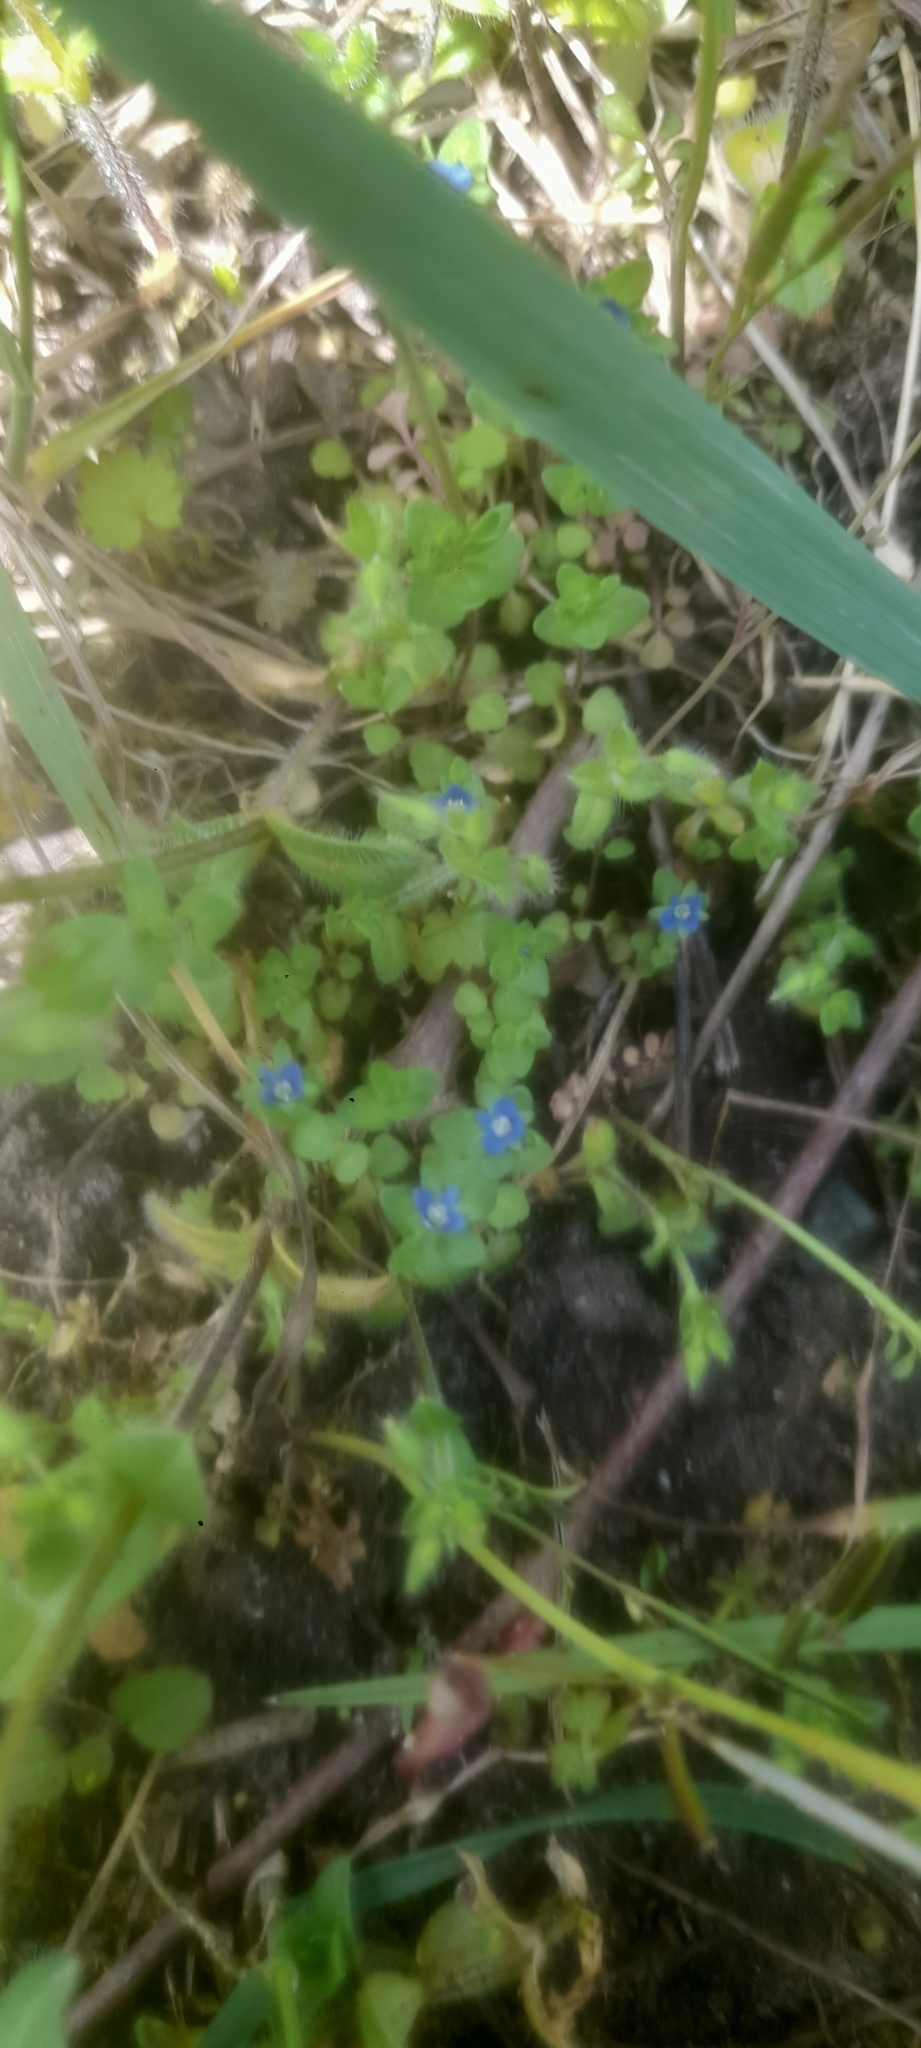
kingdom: Plantae
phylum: Tracheophyta
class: Magnoliopsida
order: Lamiales
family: Plantaginaceae
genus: Veronica
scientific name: Veronica arvensis
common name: Corn speedwell
